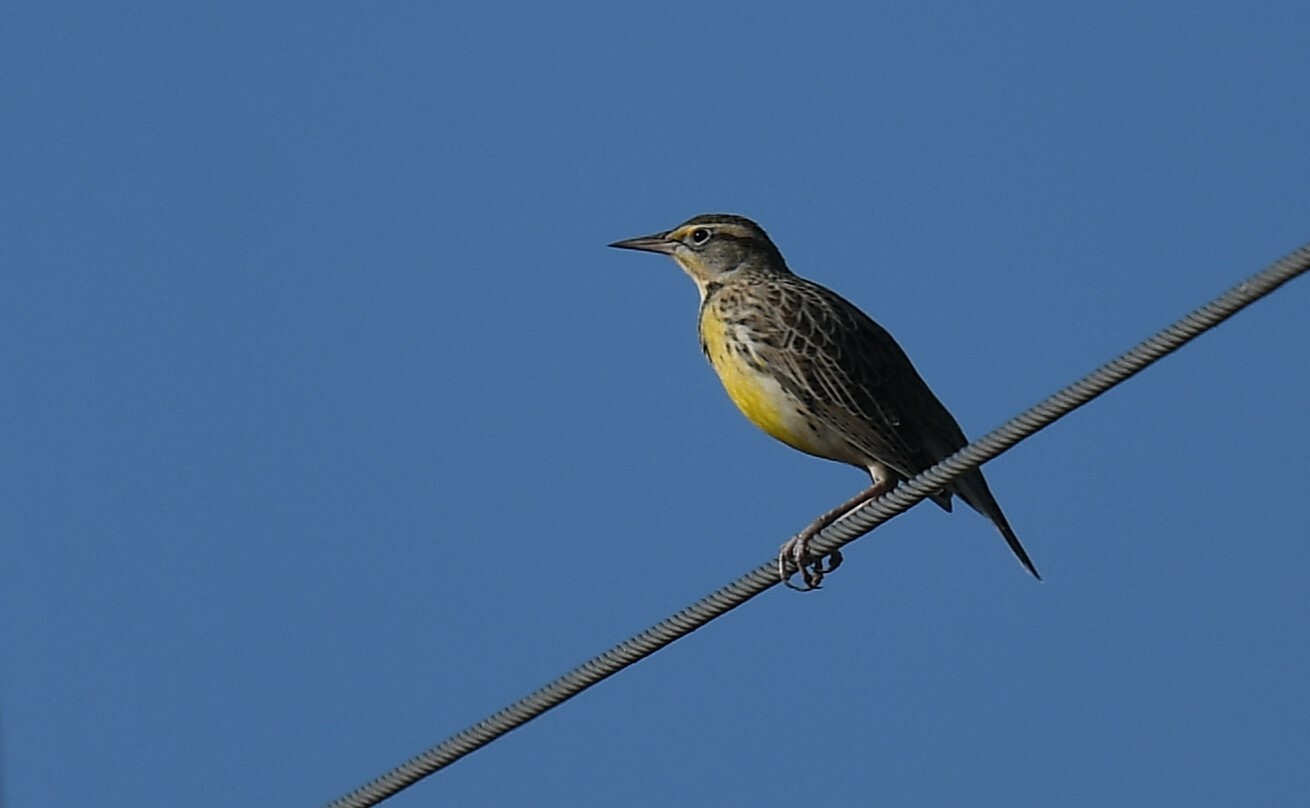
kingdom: Animalia
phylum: Chordata
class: Aves
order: Passeriformes
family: Icteridae
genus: Sturnella
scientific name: Sturnella magna
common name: Eastern meadowlark
